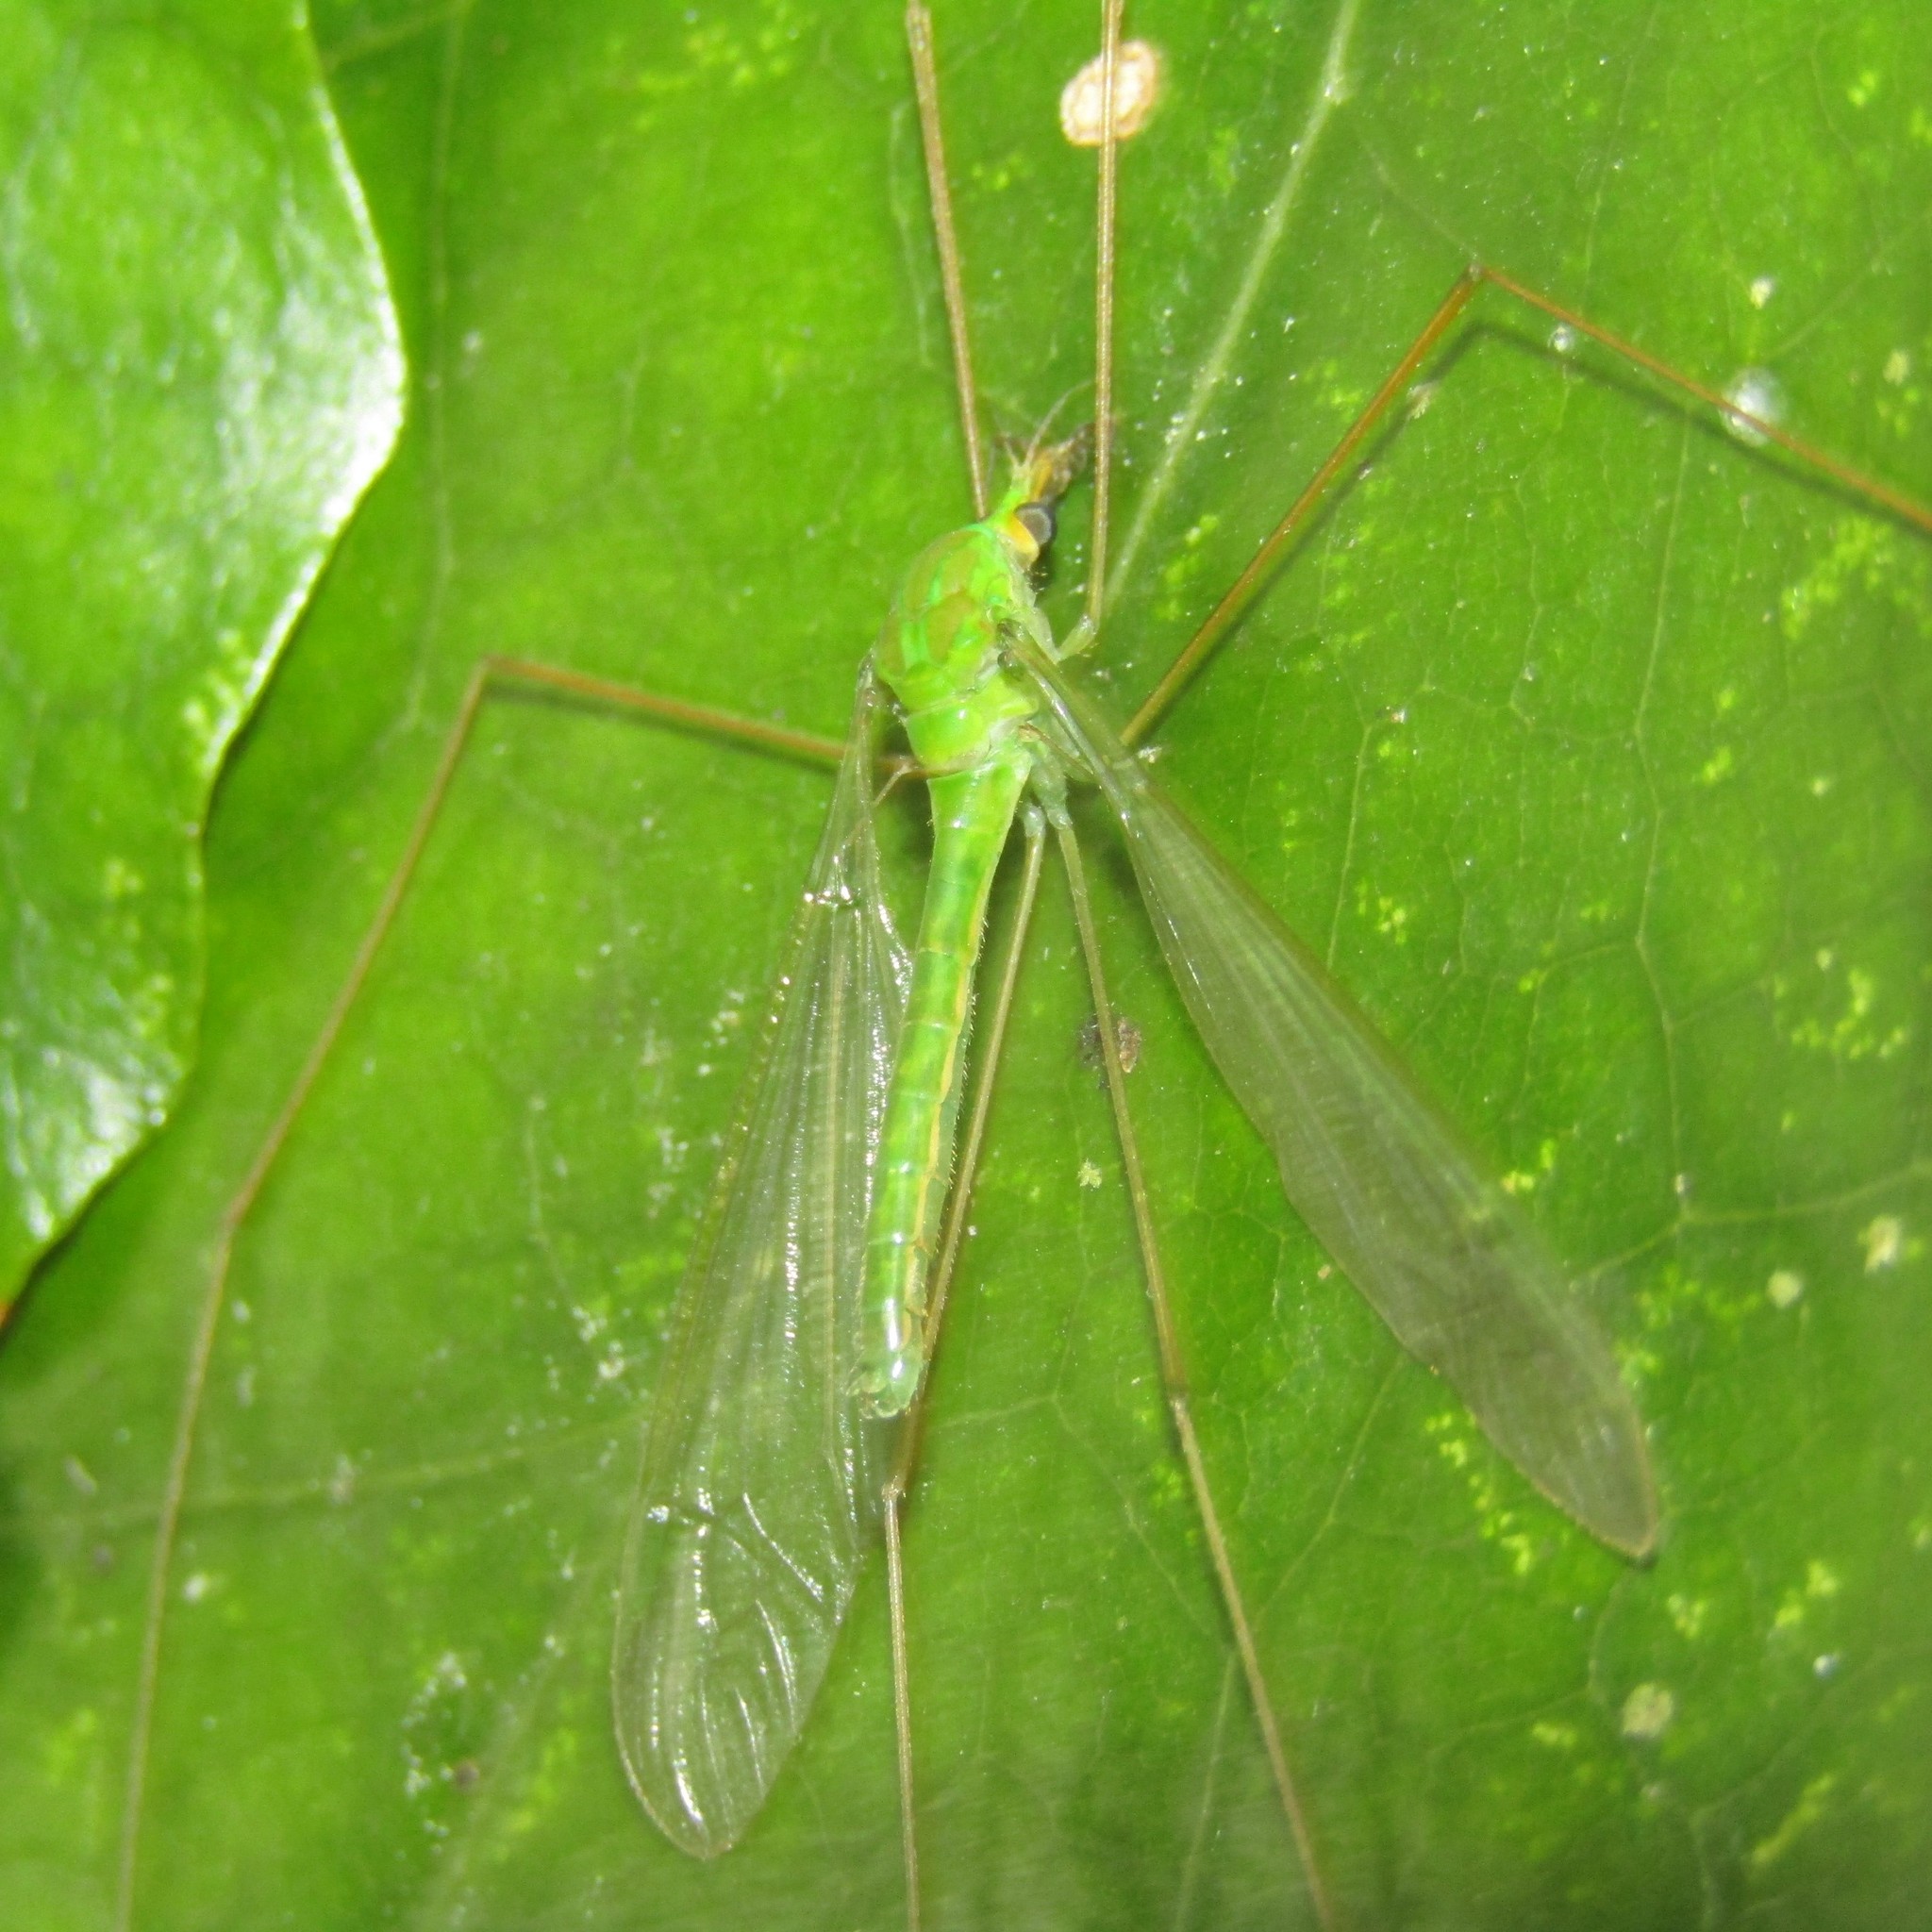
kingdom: Animalia
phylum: Arthropoda
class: Insecta
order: Diptera
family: Tipulidae
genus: Leptotarsus
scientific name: Leptotarsus virescens
